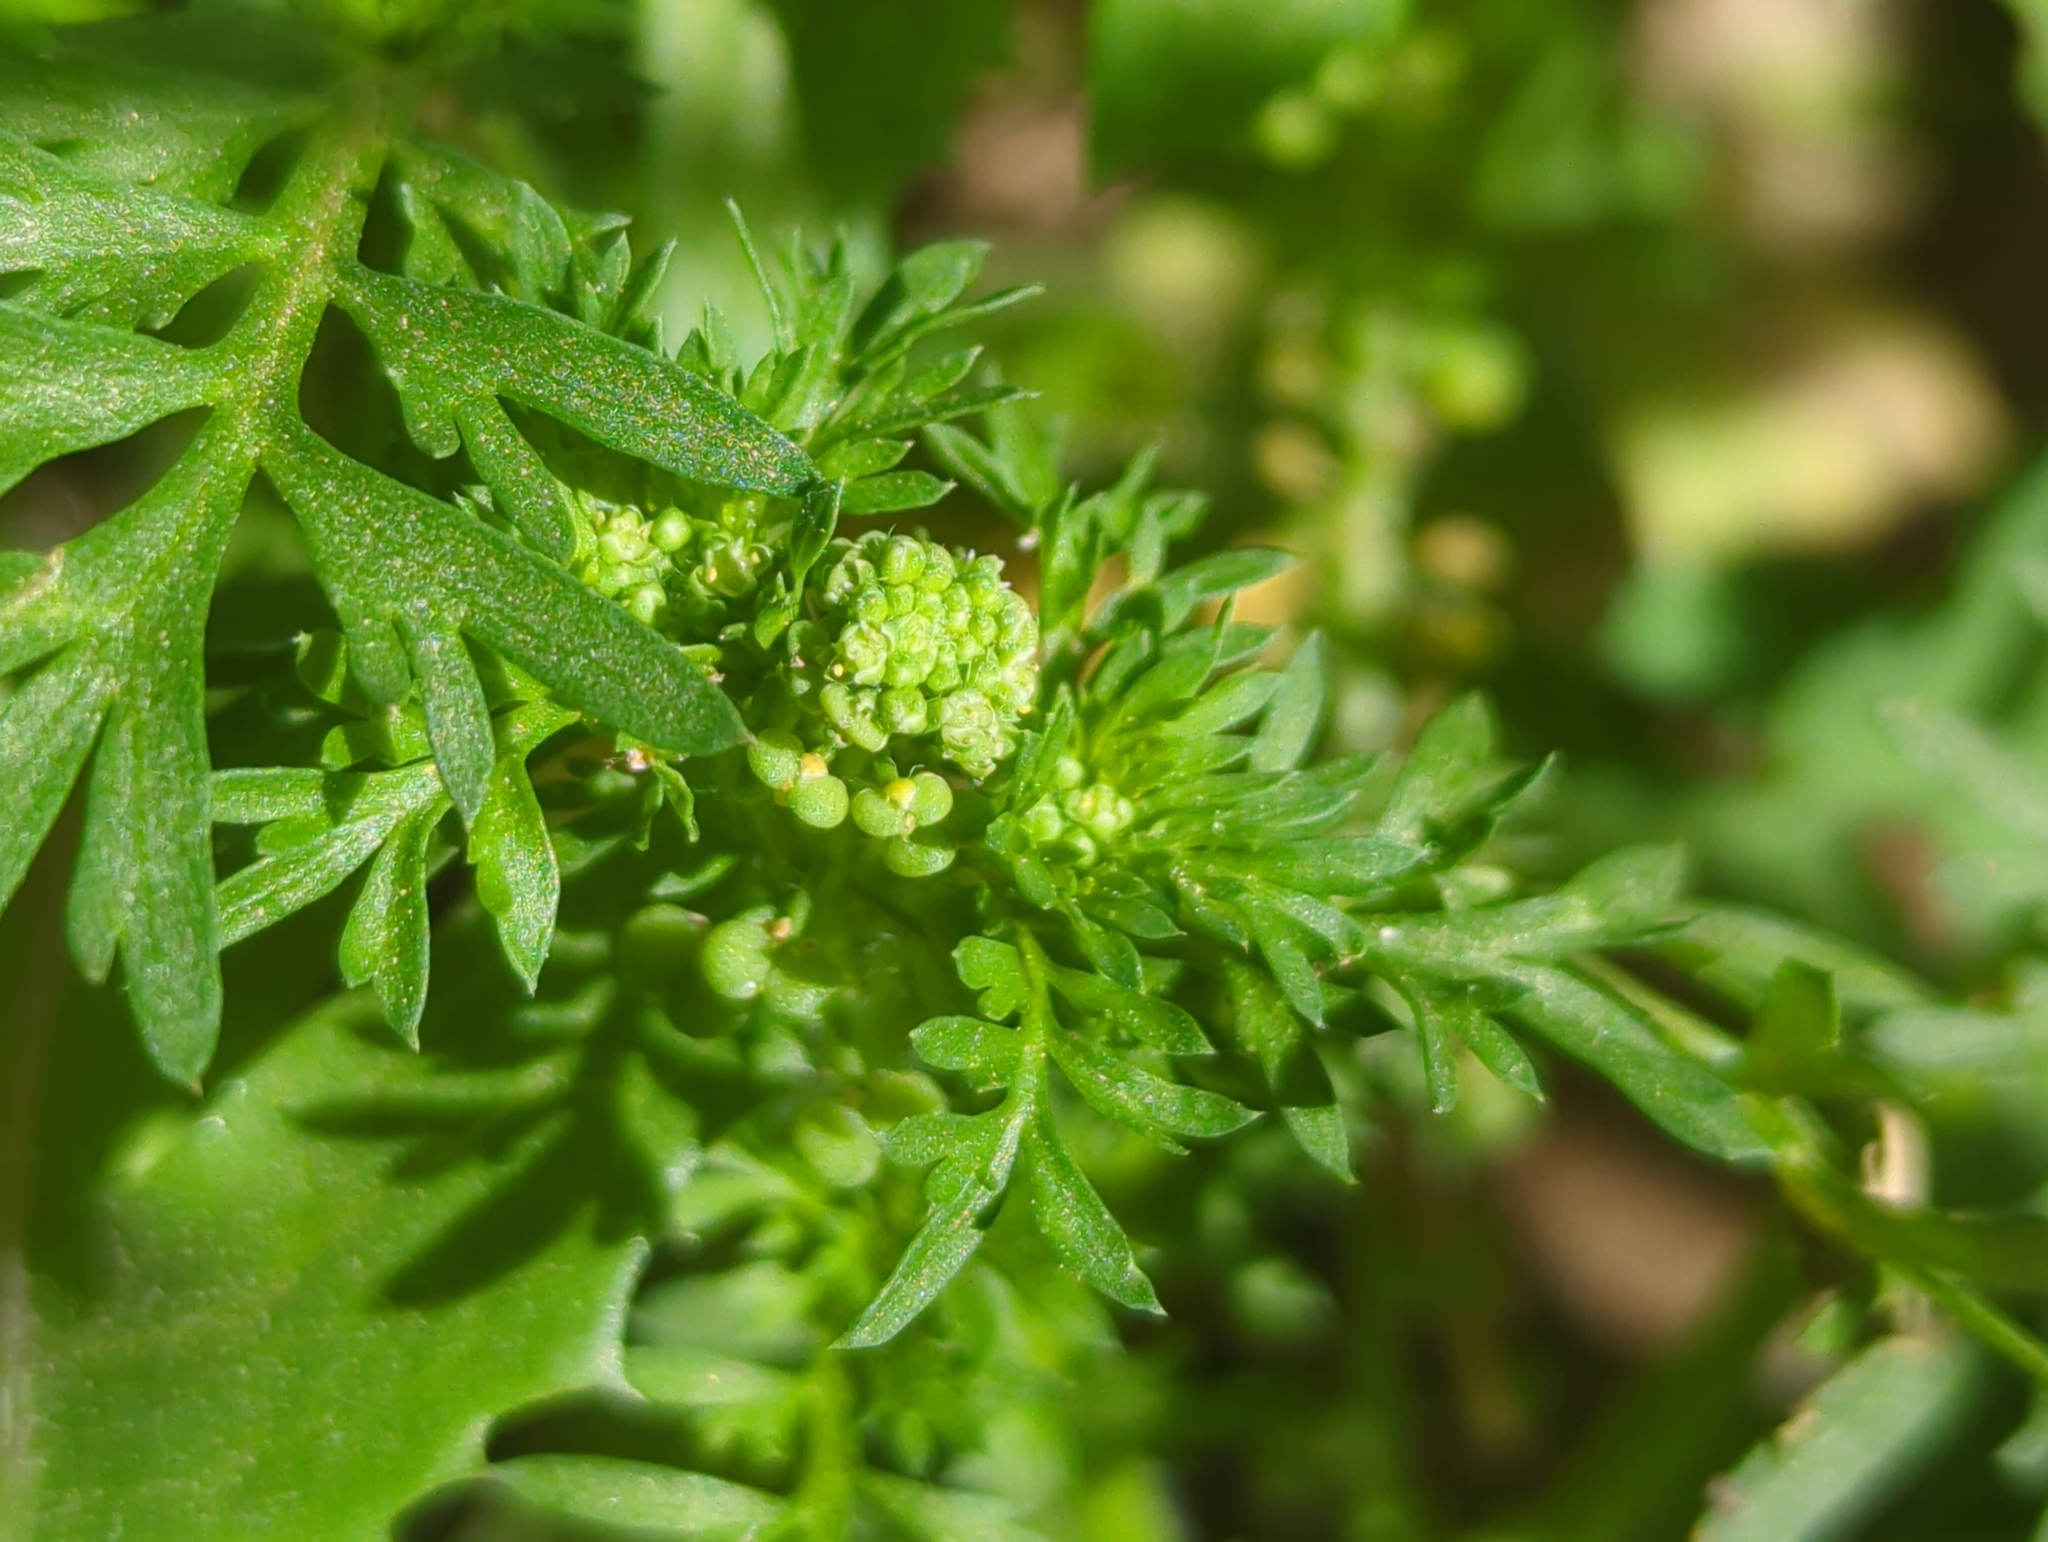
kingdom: Plantae
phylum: Tracheophyta
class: Magnoliopsida
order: Brassicales
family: Brassicaceae
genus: Lepidium
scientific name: Lepidium didymum
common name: Lesser swinecress
